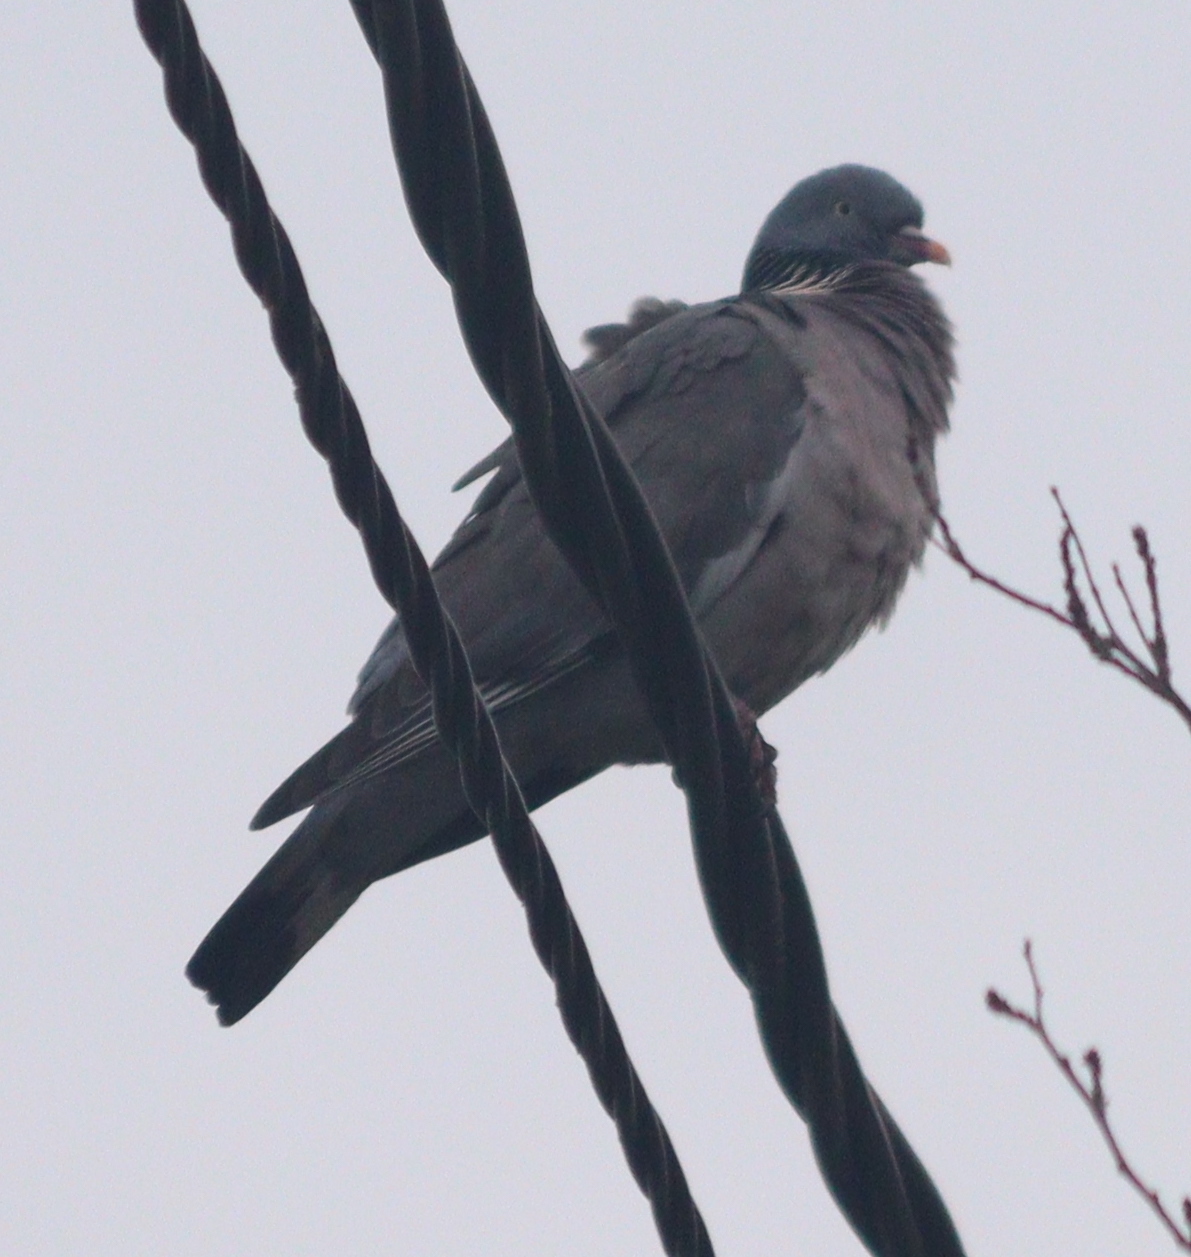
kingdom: Animalia
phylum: Chordata
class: Aves
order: Columbiformes
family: Columbidae
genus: Columba
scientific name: Columba palumbus
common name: Common wood pigeon
